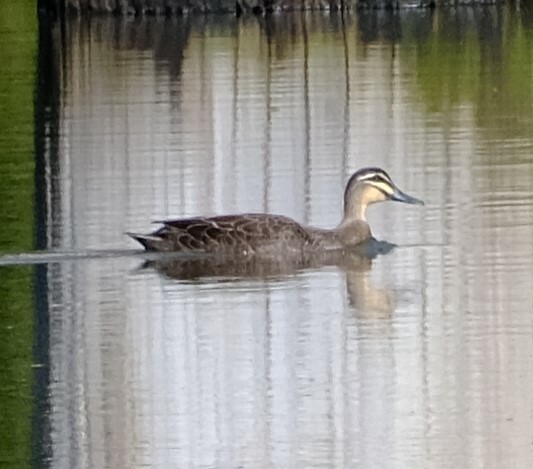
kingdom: Animalia
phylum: Chordata
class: Aves
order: Anseriformes
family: Anatidae
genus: Anas
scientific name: Anas superciliosa
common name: Pacific black duck
